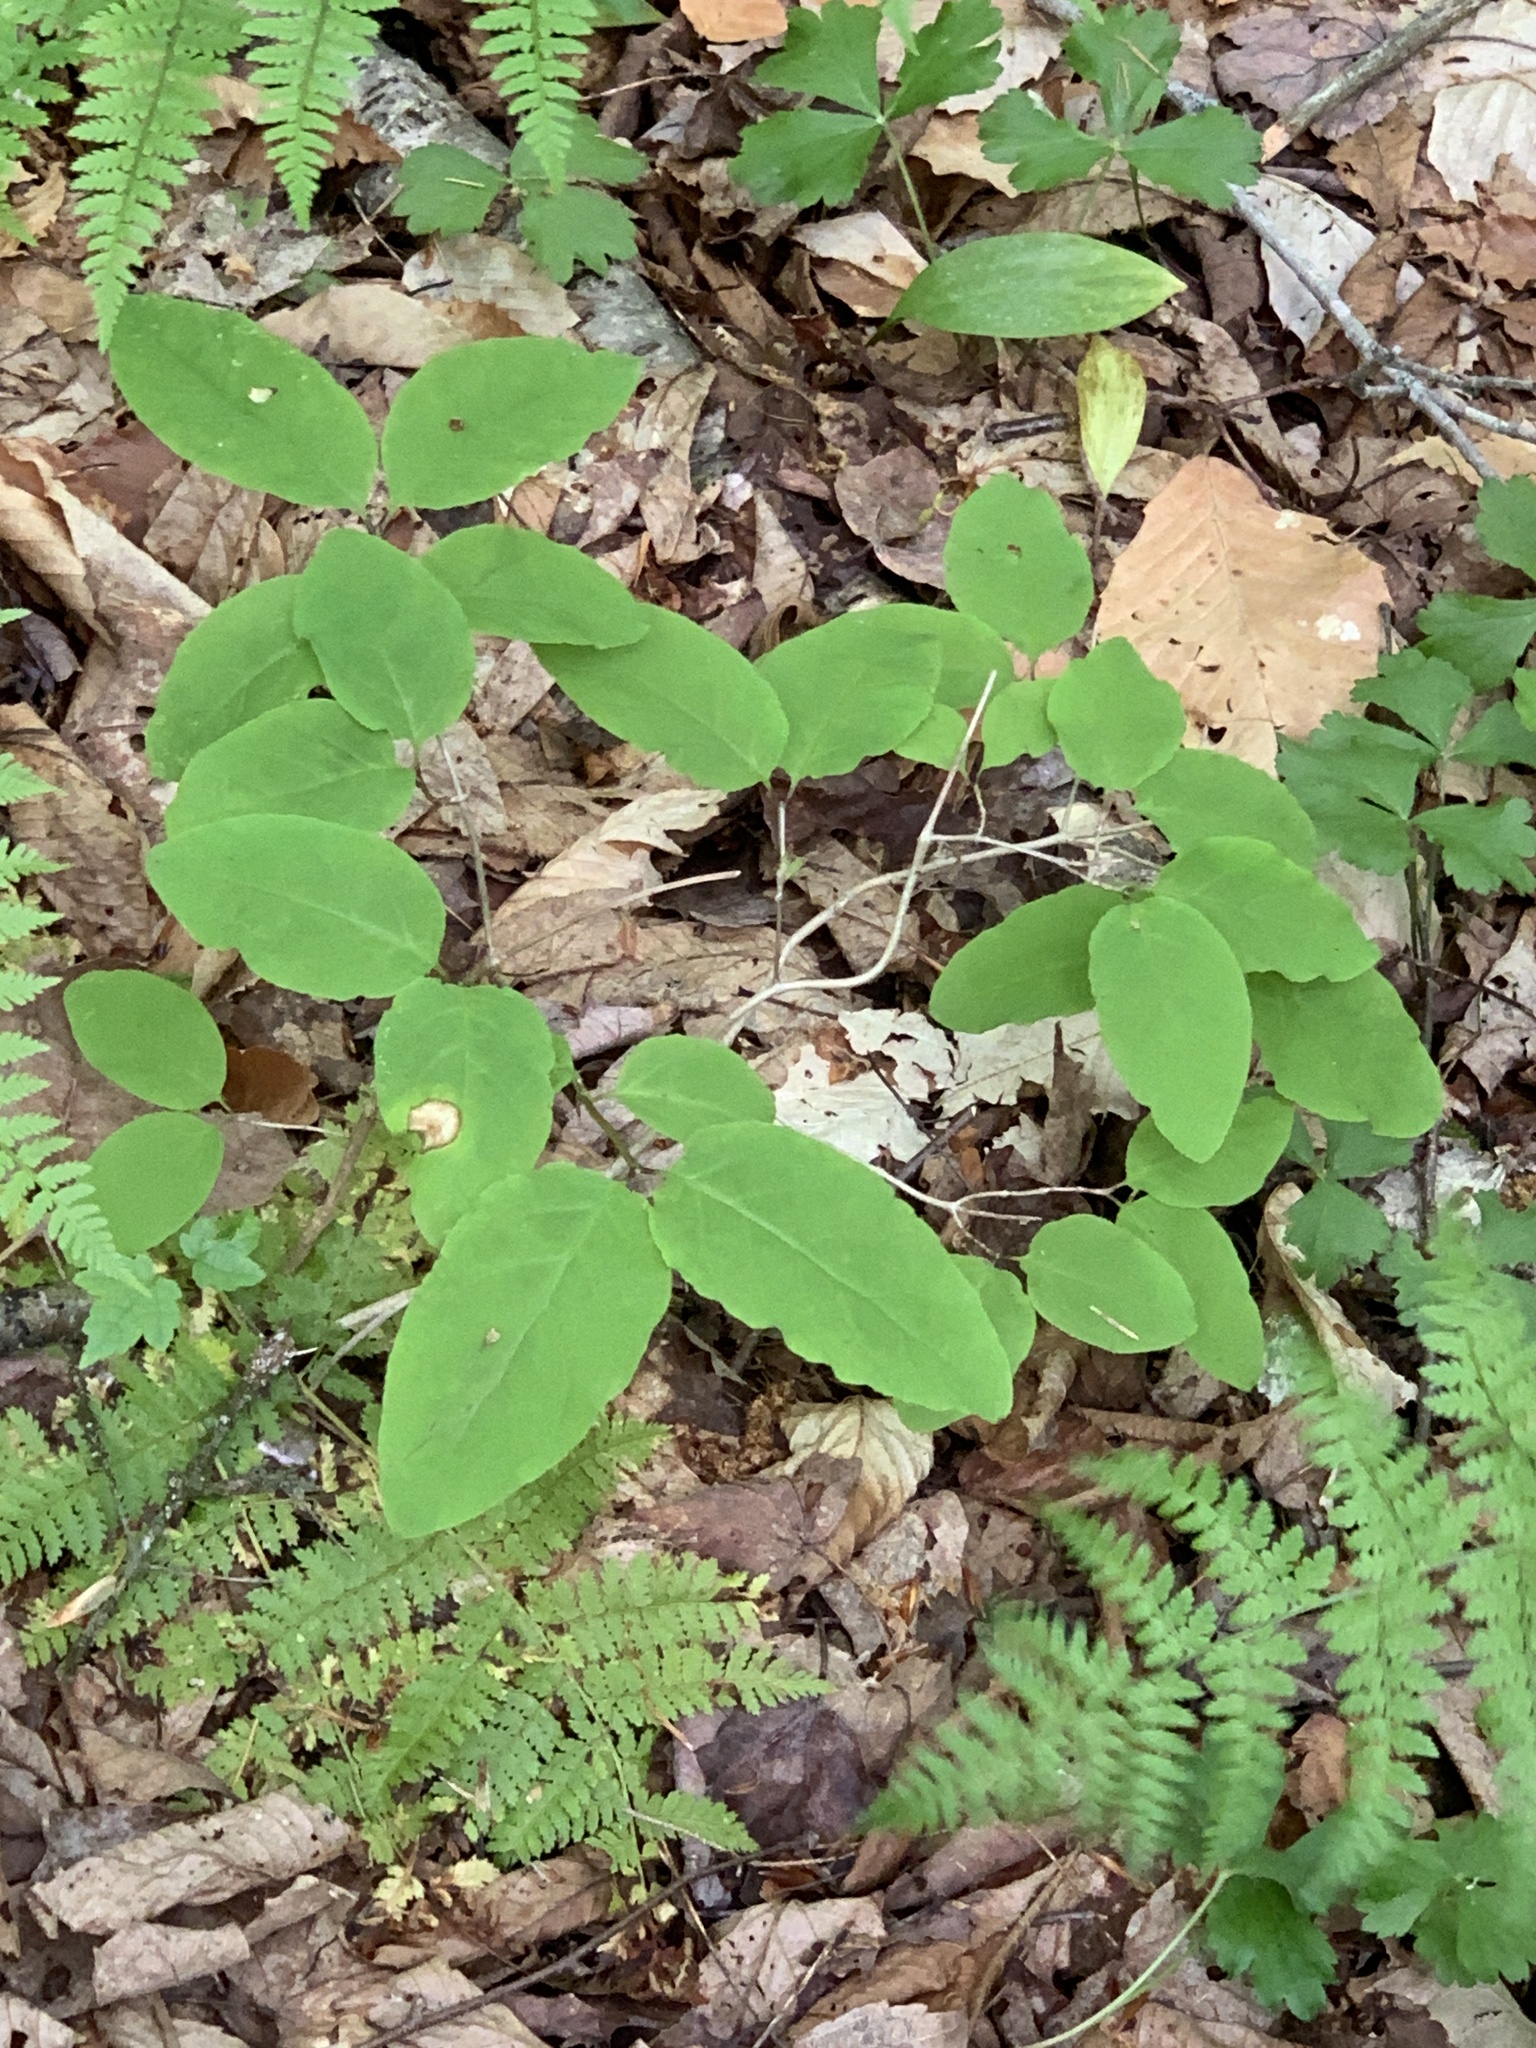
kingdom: Plantae
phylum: Tracheophyta
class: Magnoliopsida
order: Dipsacales
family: Caprifoliaceae
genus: Lonicera
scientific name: Lonicera canadensis
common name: American fly-honeysuckle
